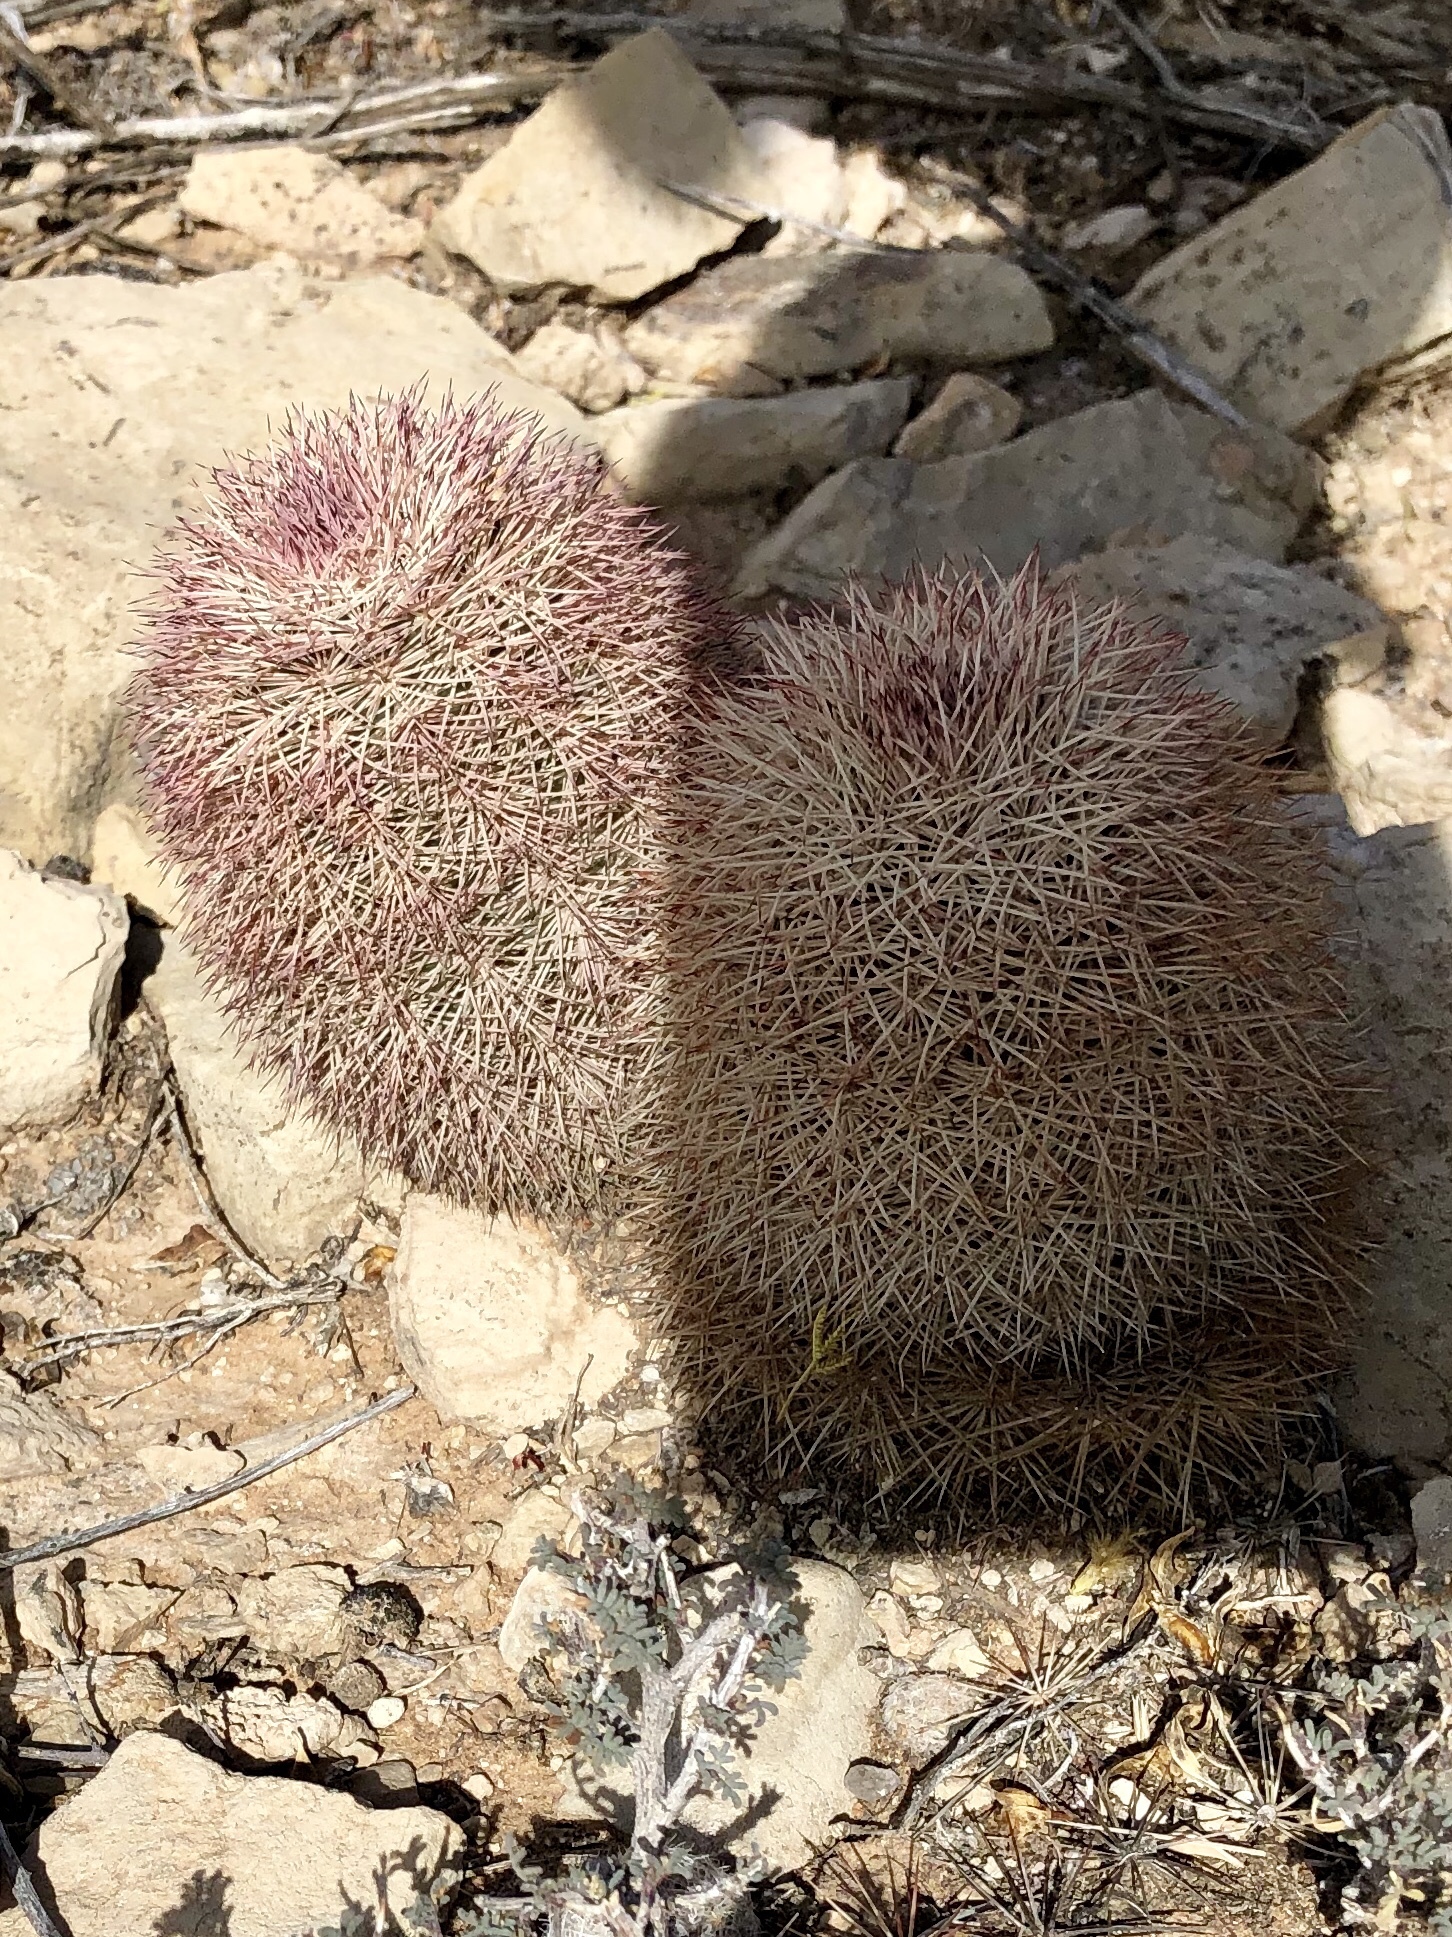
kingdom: Plantae
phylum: Tracheophyta
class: Magnoliopsida
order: Caryophyllales
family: Cactaceae
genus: Echinocereus
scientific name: Echinocereus dasyacanthus
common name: Spiny hedgehog cactus
